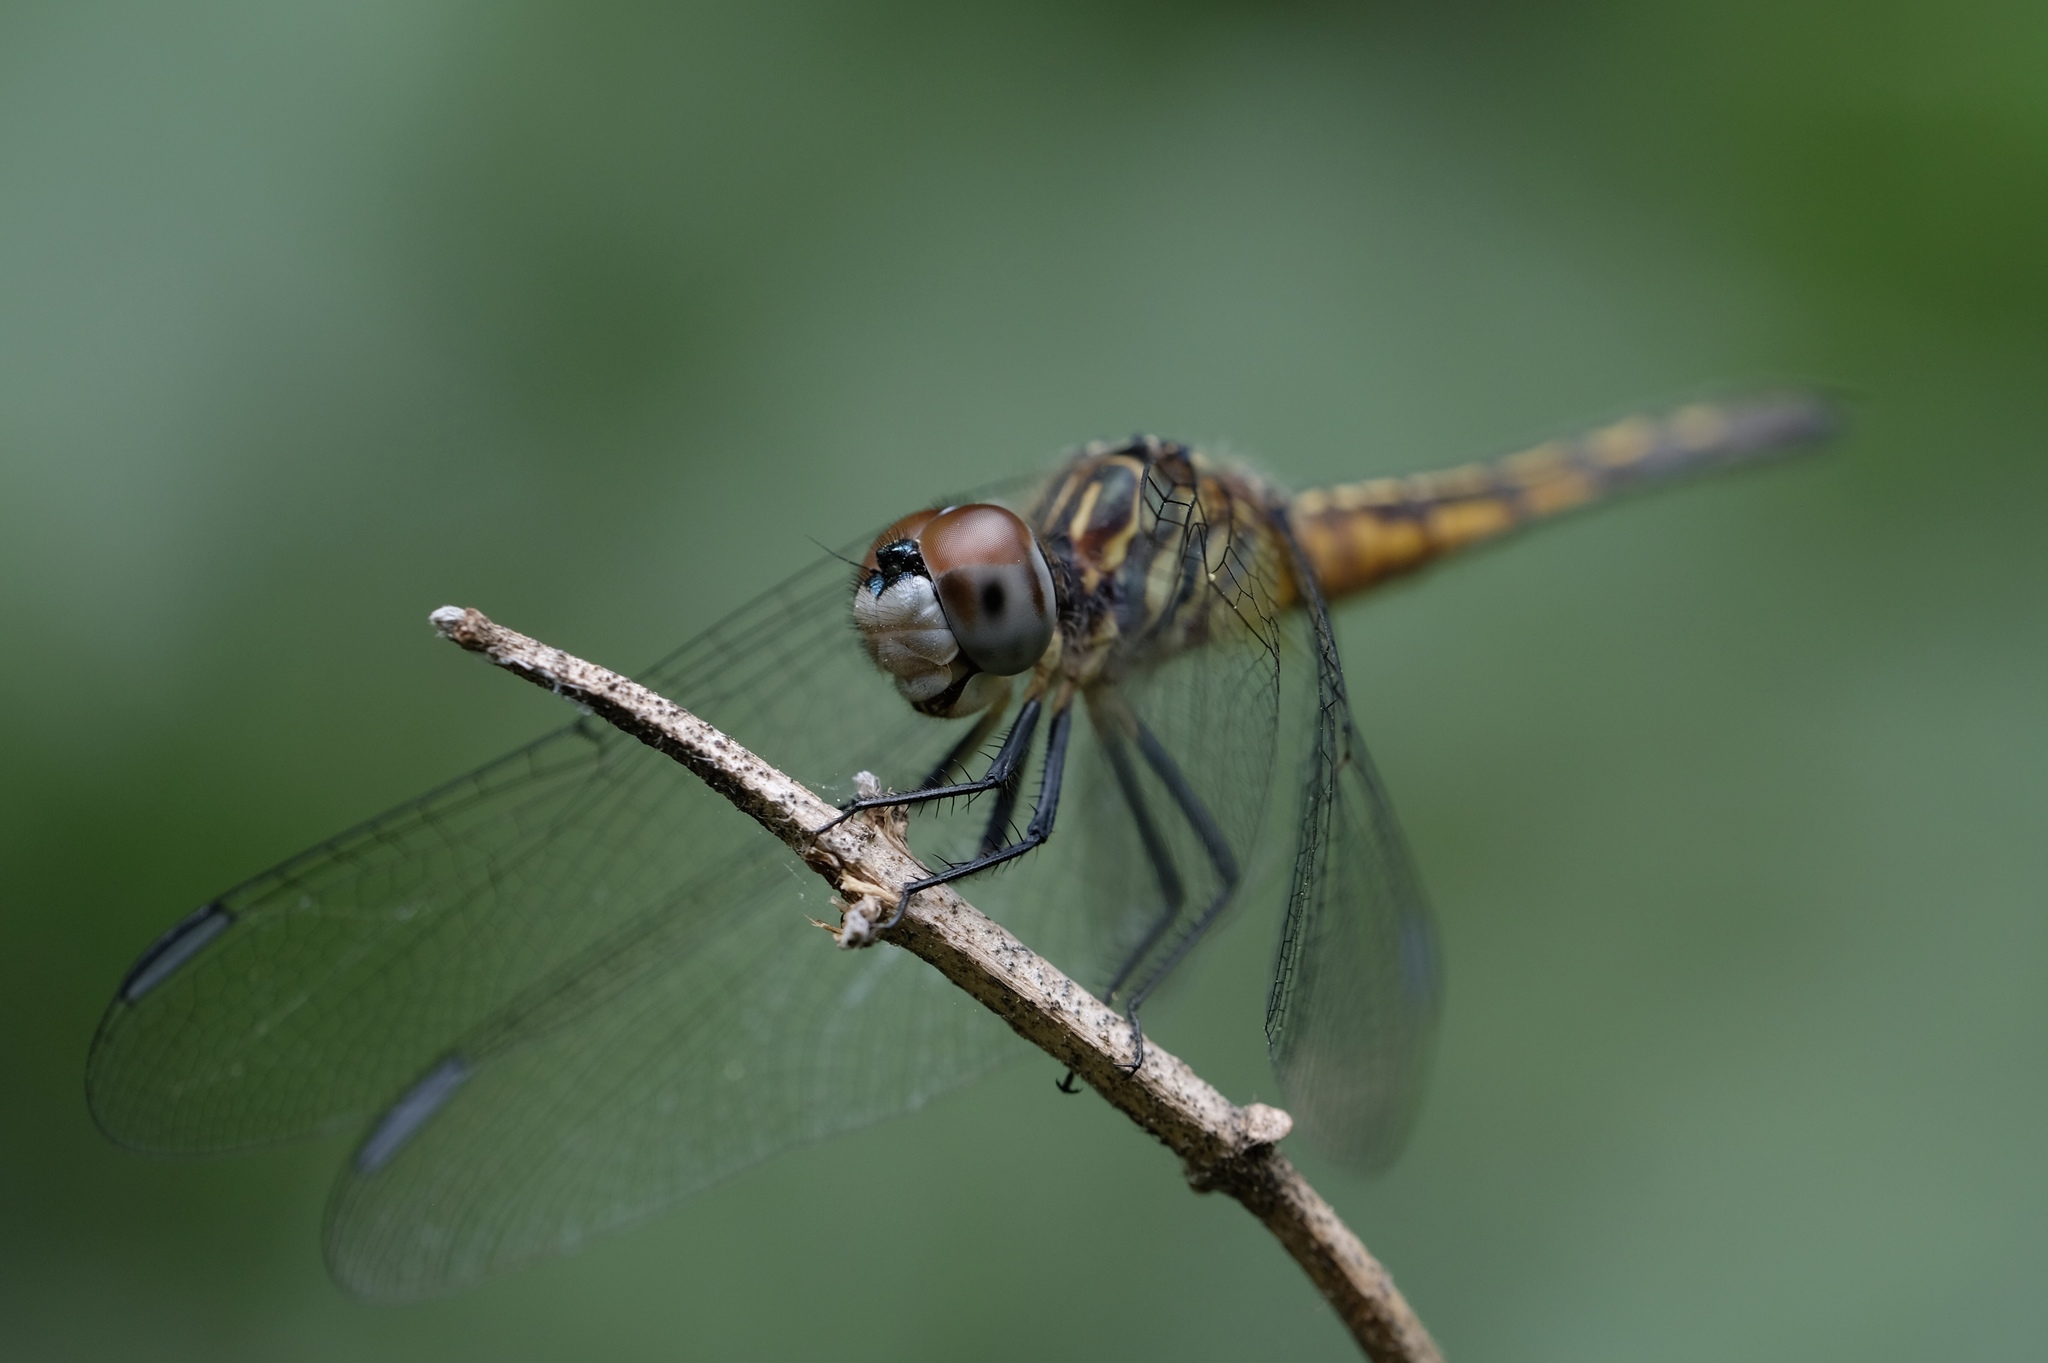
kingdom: Animalia
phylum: Arthropoda
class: Insecta
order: Odonata
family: Libellulidae
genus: Pachydiplax
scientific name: Pachydiplax longipennis
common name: Blue dasher
